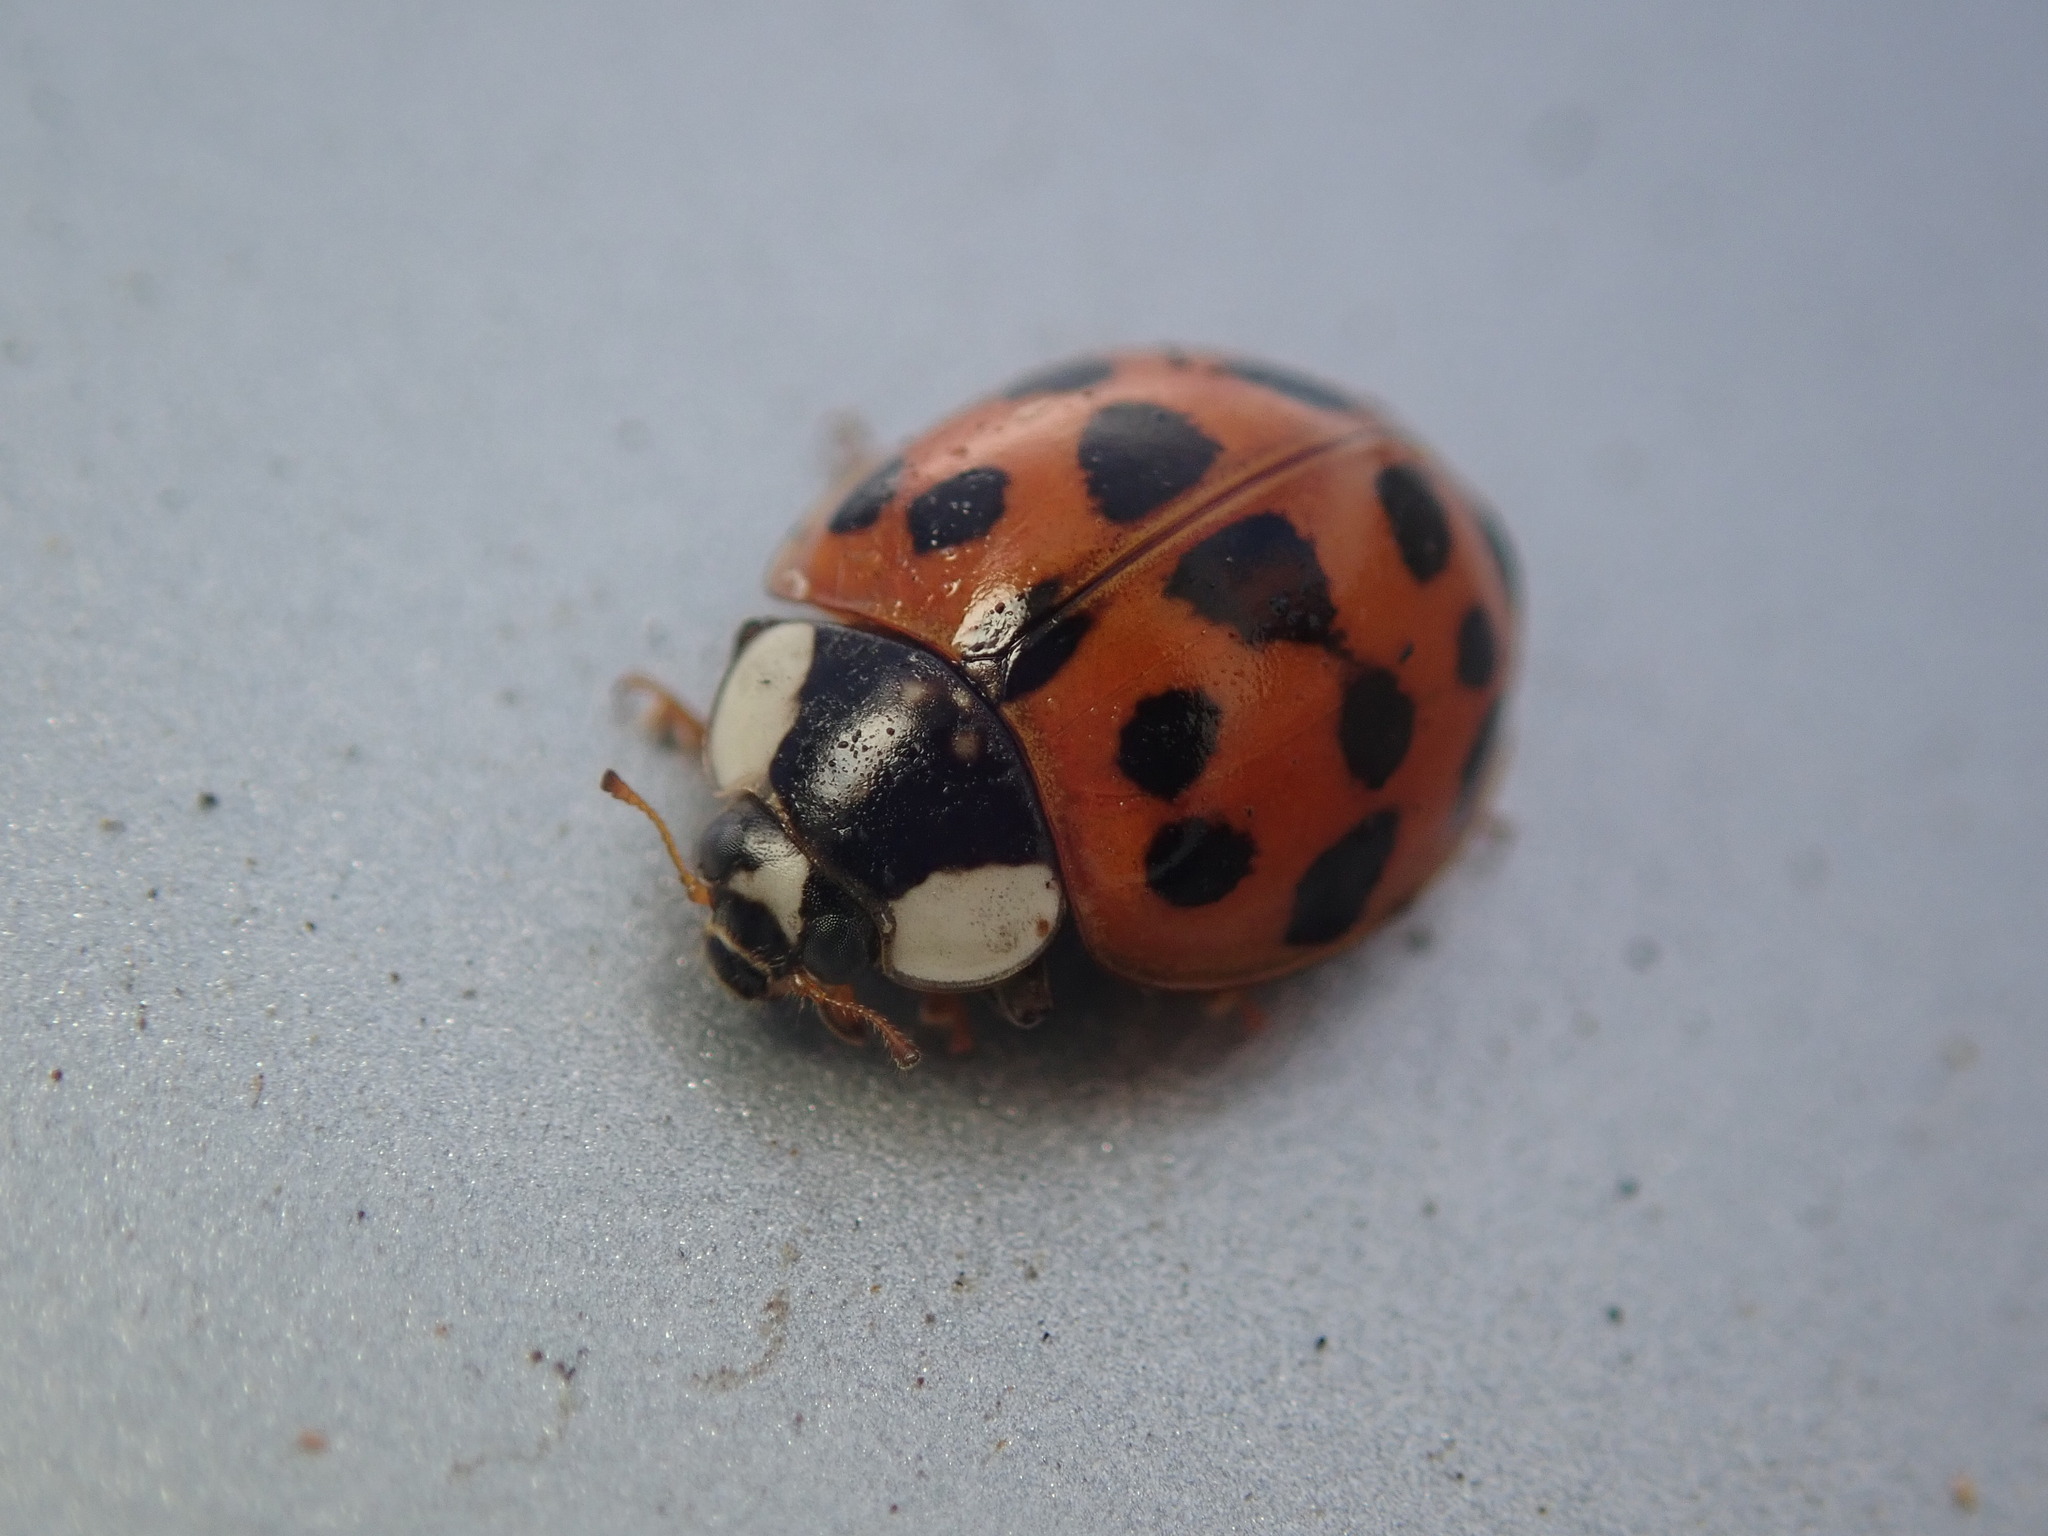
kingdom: Animalia
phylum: Arthropoda
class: Insecta
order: Coleoptera
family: Coccinellidae
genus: Harmonia
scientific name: Harmonia axyridis
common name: Harlequin ladybird
